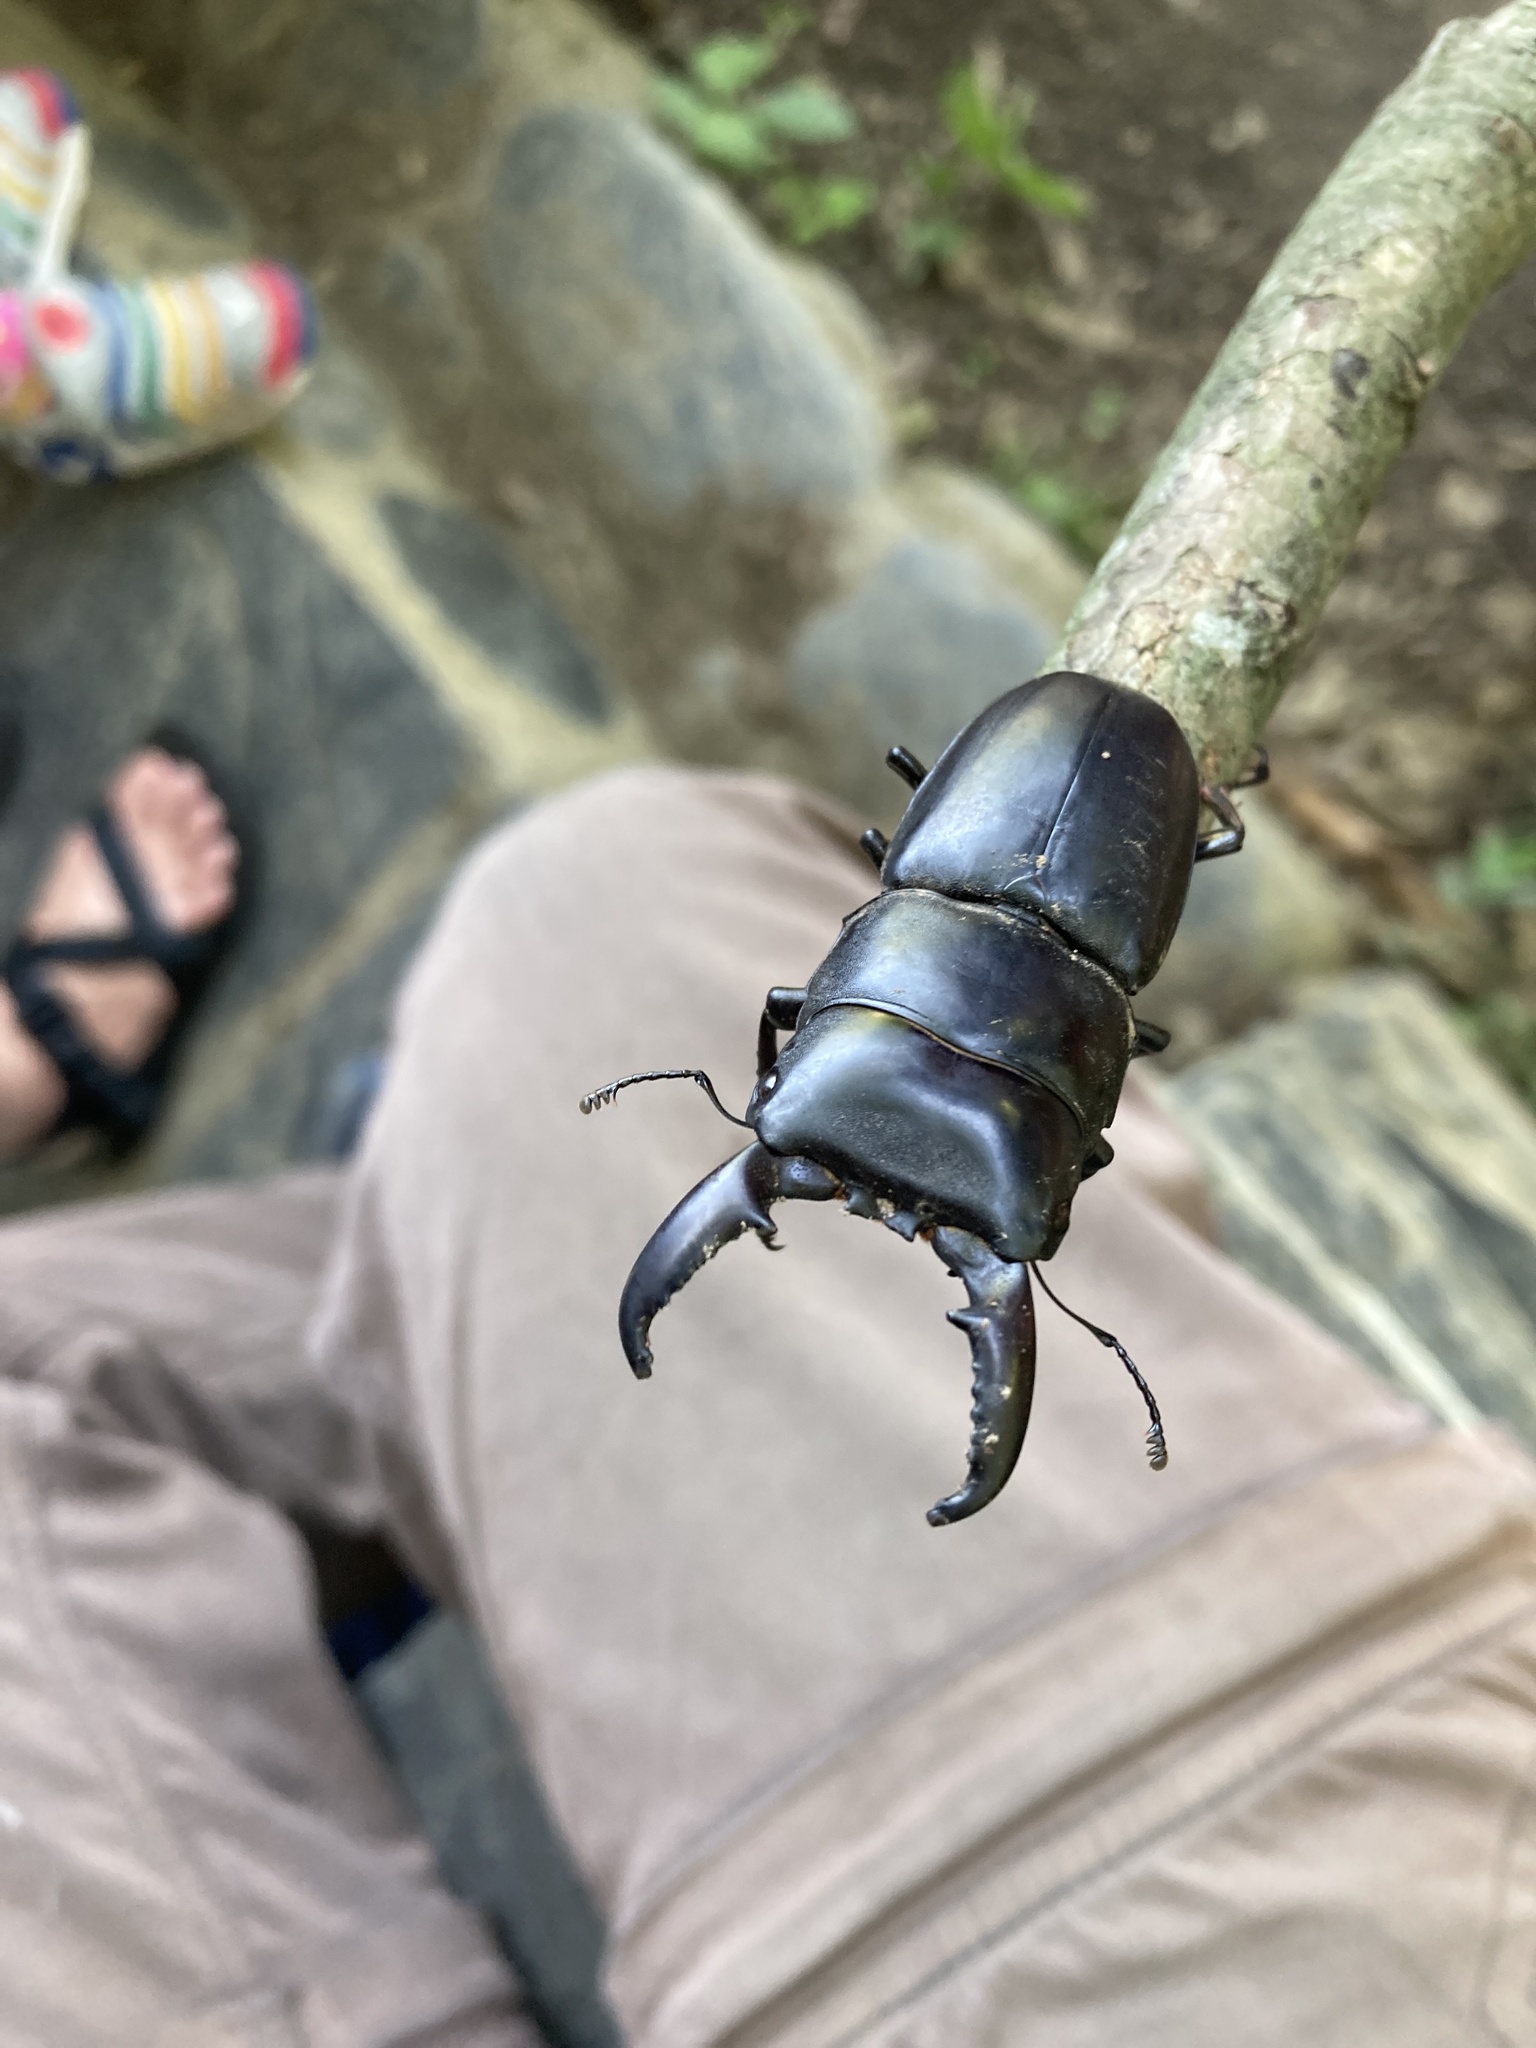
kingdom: Animalia
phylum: Arthropoda
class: Insecta
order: Coleoptera
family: Lucanidae
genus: Serrognathus
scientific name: Serrognathus titanus
